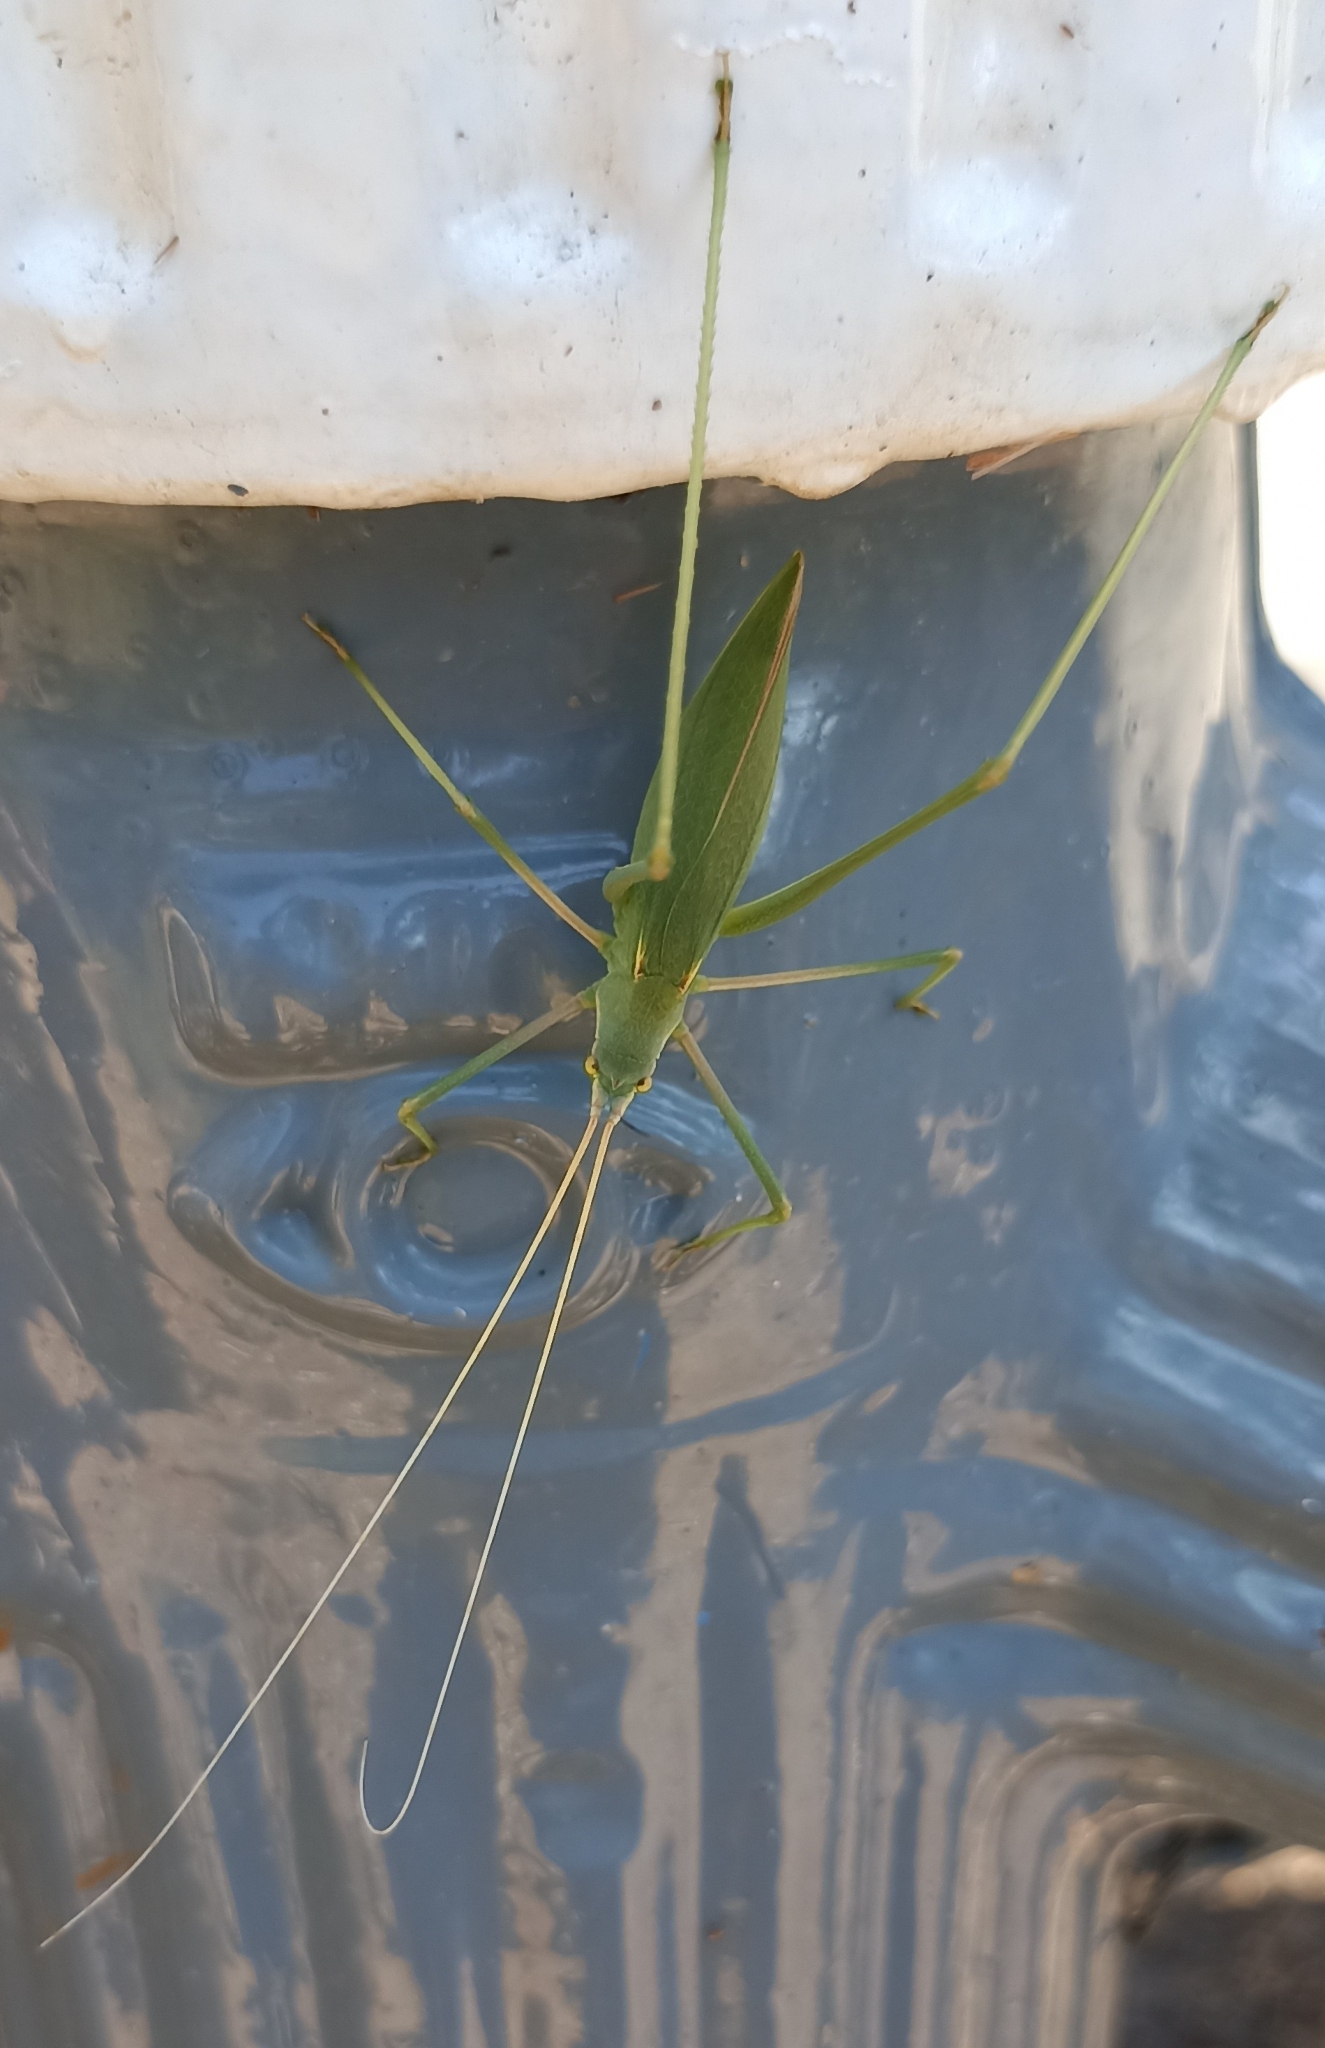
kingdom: Animalia
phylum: Arthropoda
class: Insecta
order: Orthoptera
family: Tettigoniidae
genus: Acrometopa
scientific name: Acrometopa macropoda
